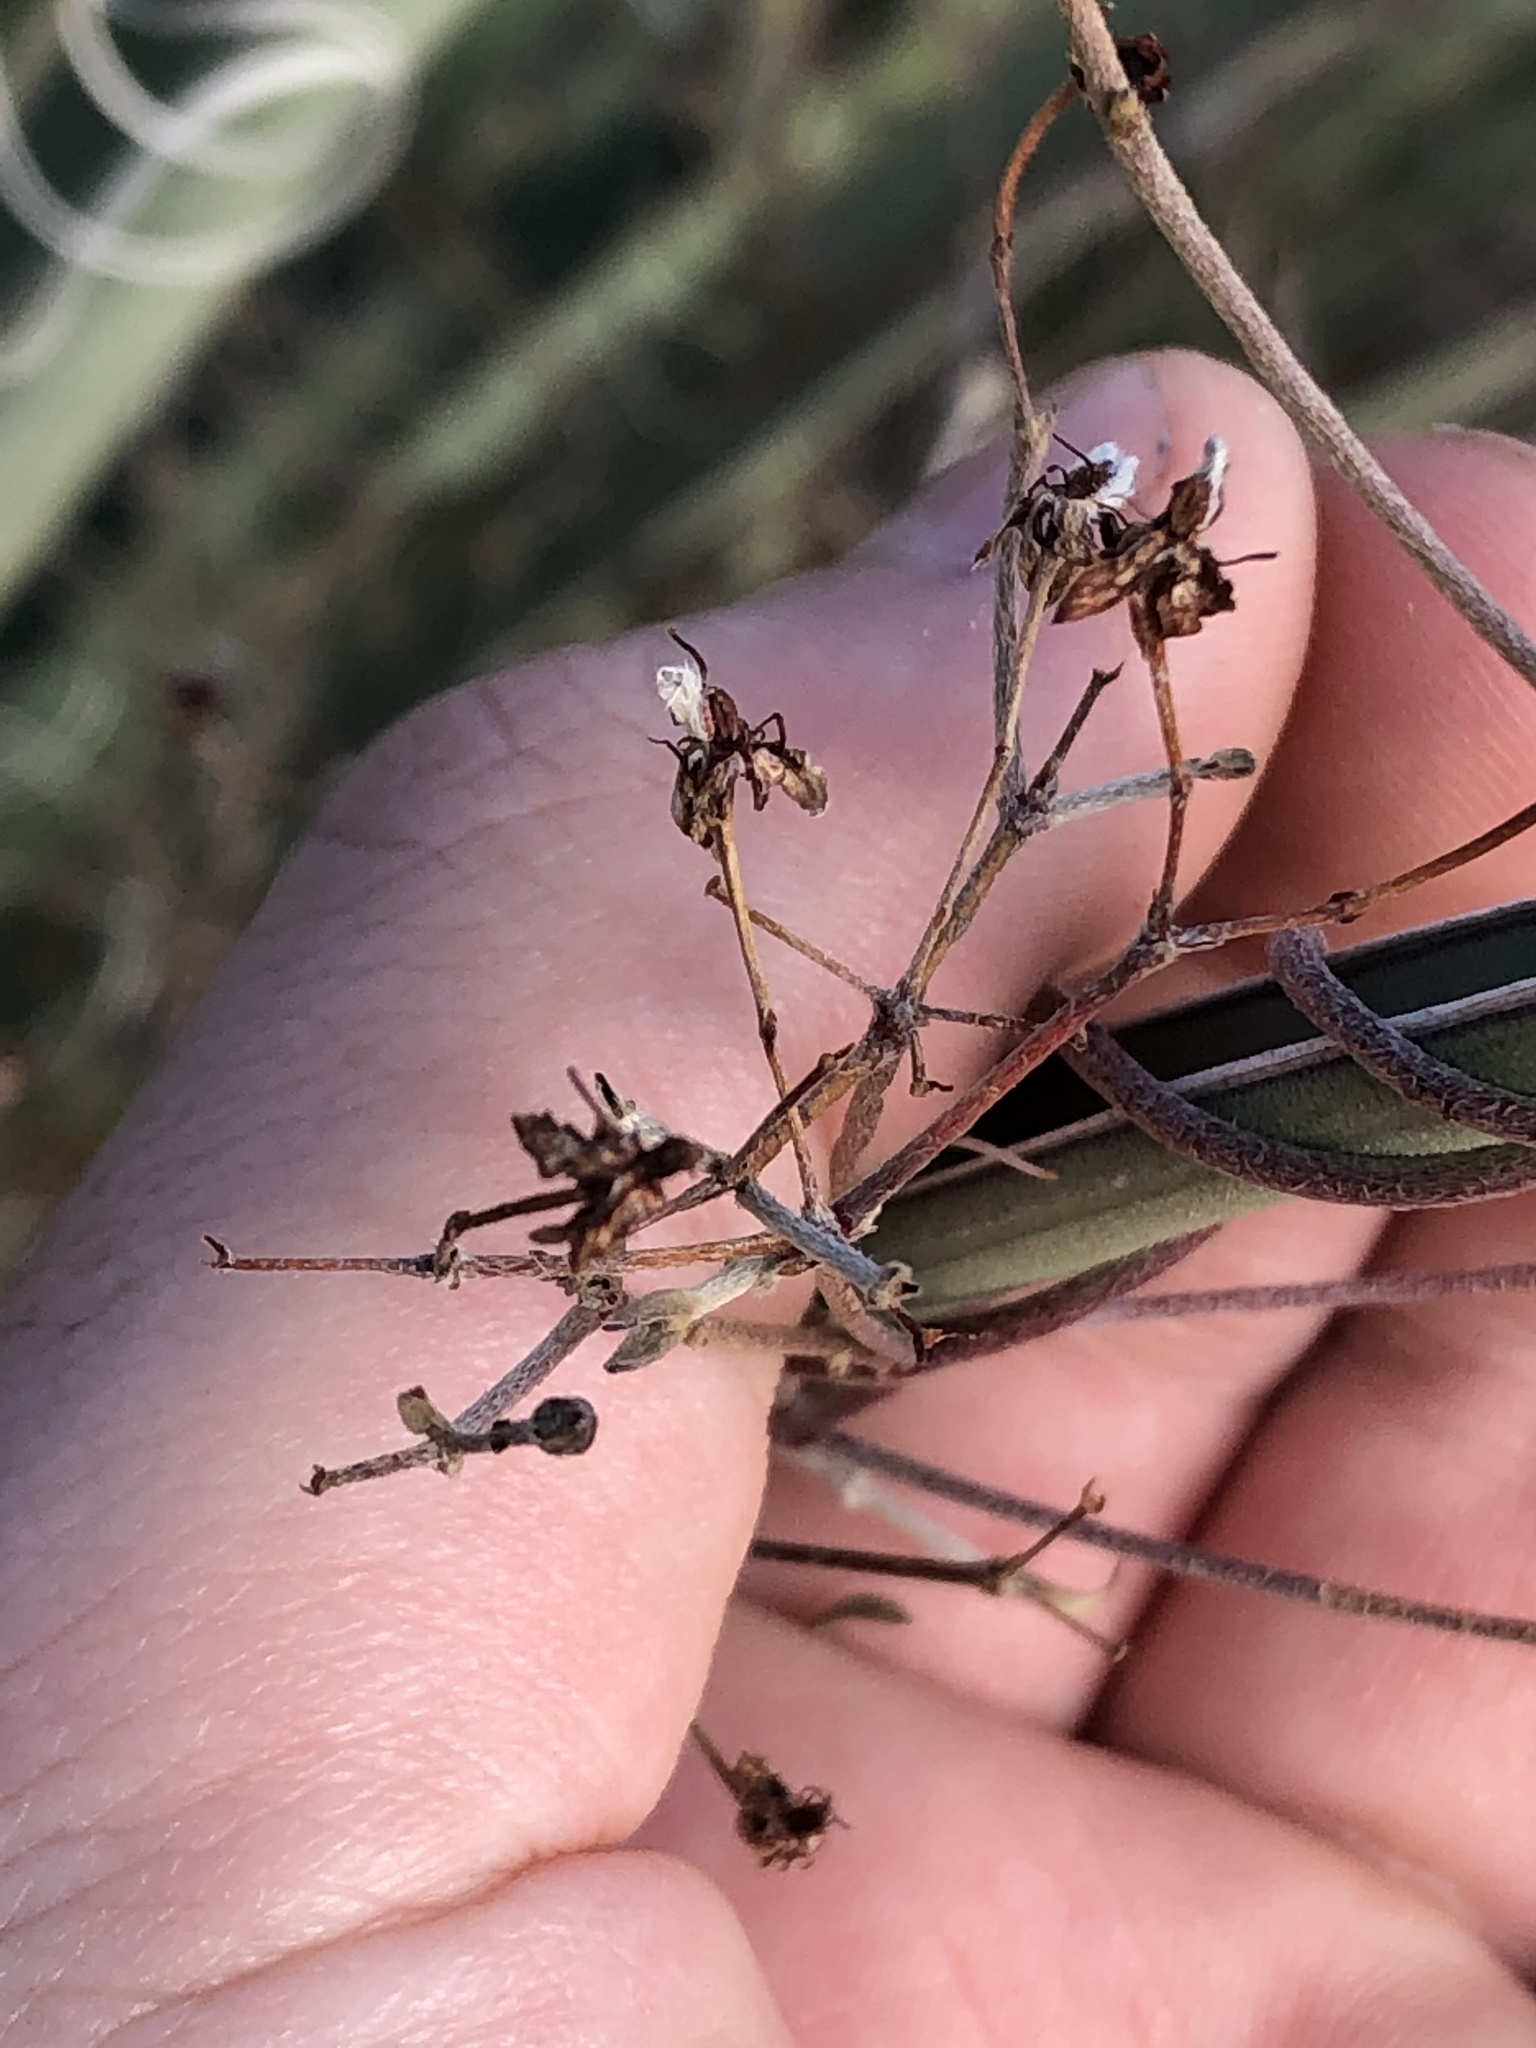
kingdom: Plantae
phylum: Tracheophyta
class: Magnoliopsida
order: Malpighiales
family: Malpighiaceae
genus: Cottsia
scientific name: Cottsia gracilis
